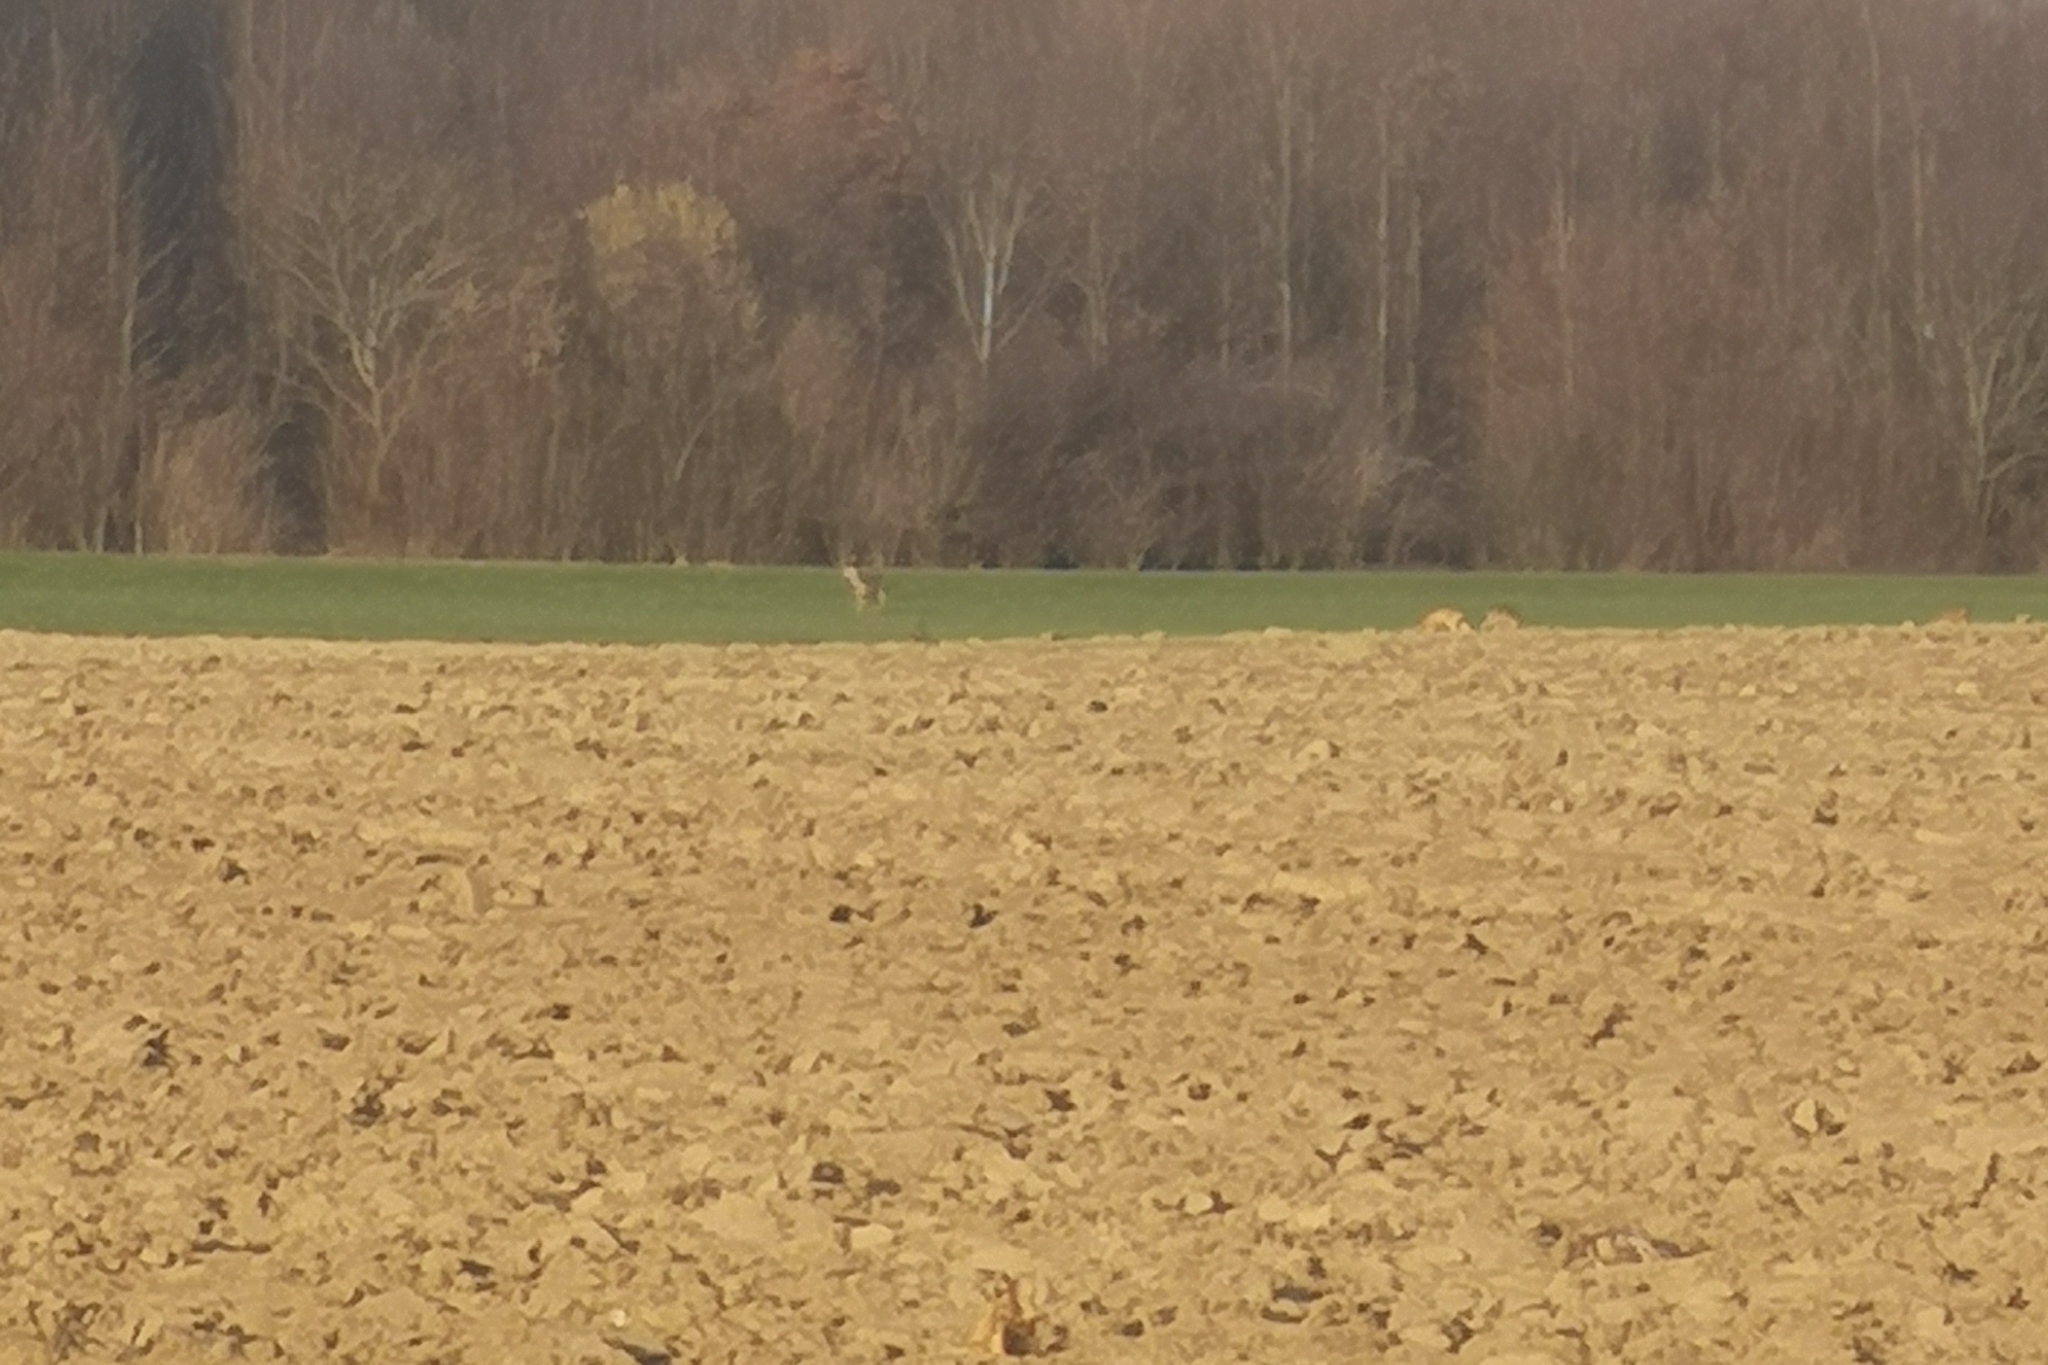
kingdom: Animalia
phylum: Chordata
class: Mammalia
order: Artiodactyla
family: Cervidae
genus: Capreolus
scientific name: Capreolus capreolus
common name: Western roe deer
